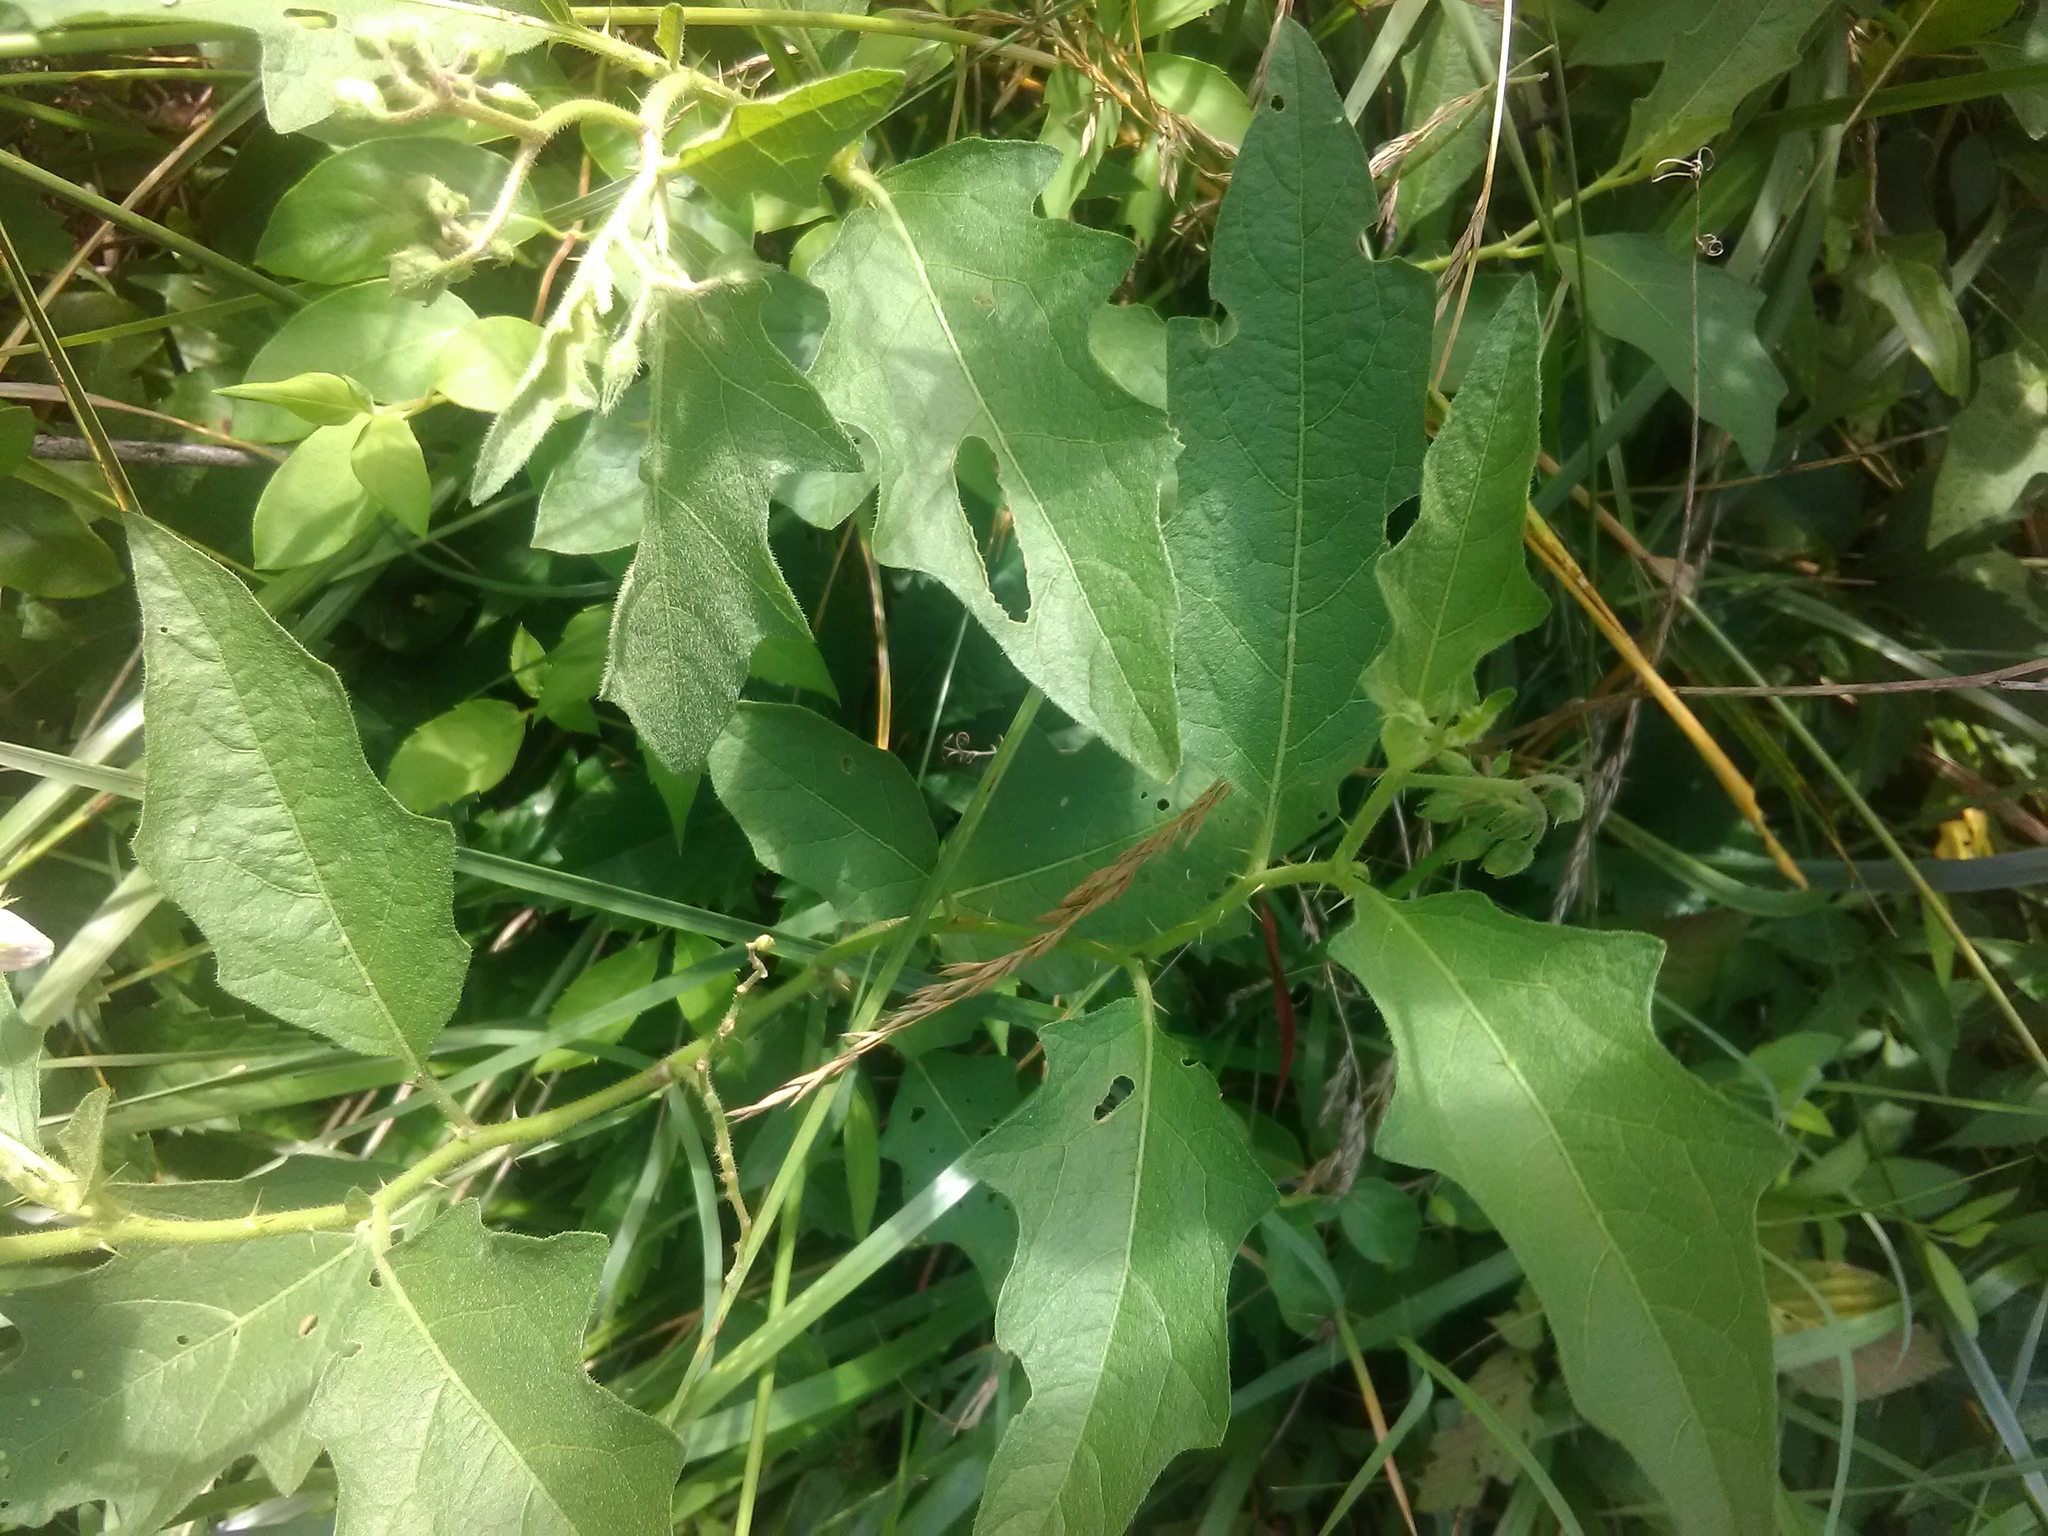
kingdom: Plantae
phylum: Tracheophyta
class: Magnoliopsida
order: Solanales
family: Solanaceae
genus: Solanum
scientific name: Solanum carolinense
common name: Horse-nettle
